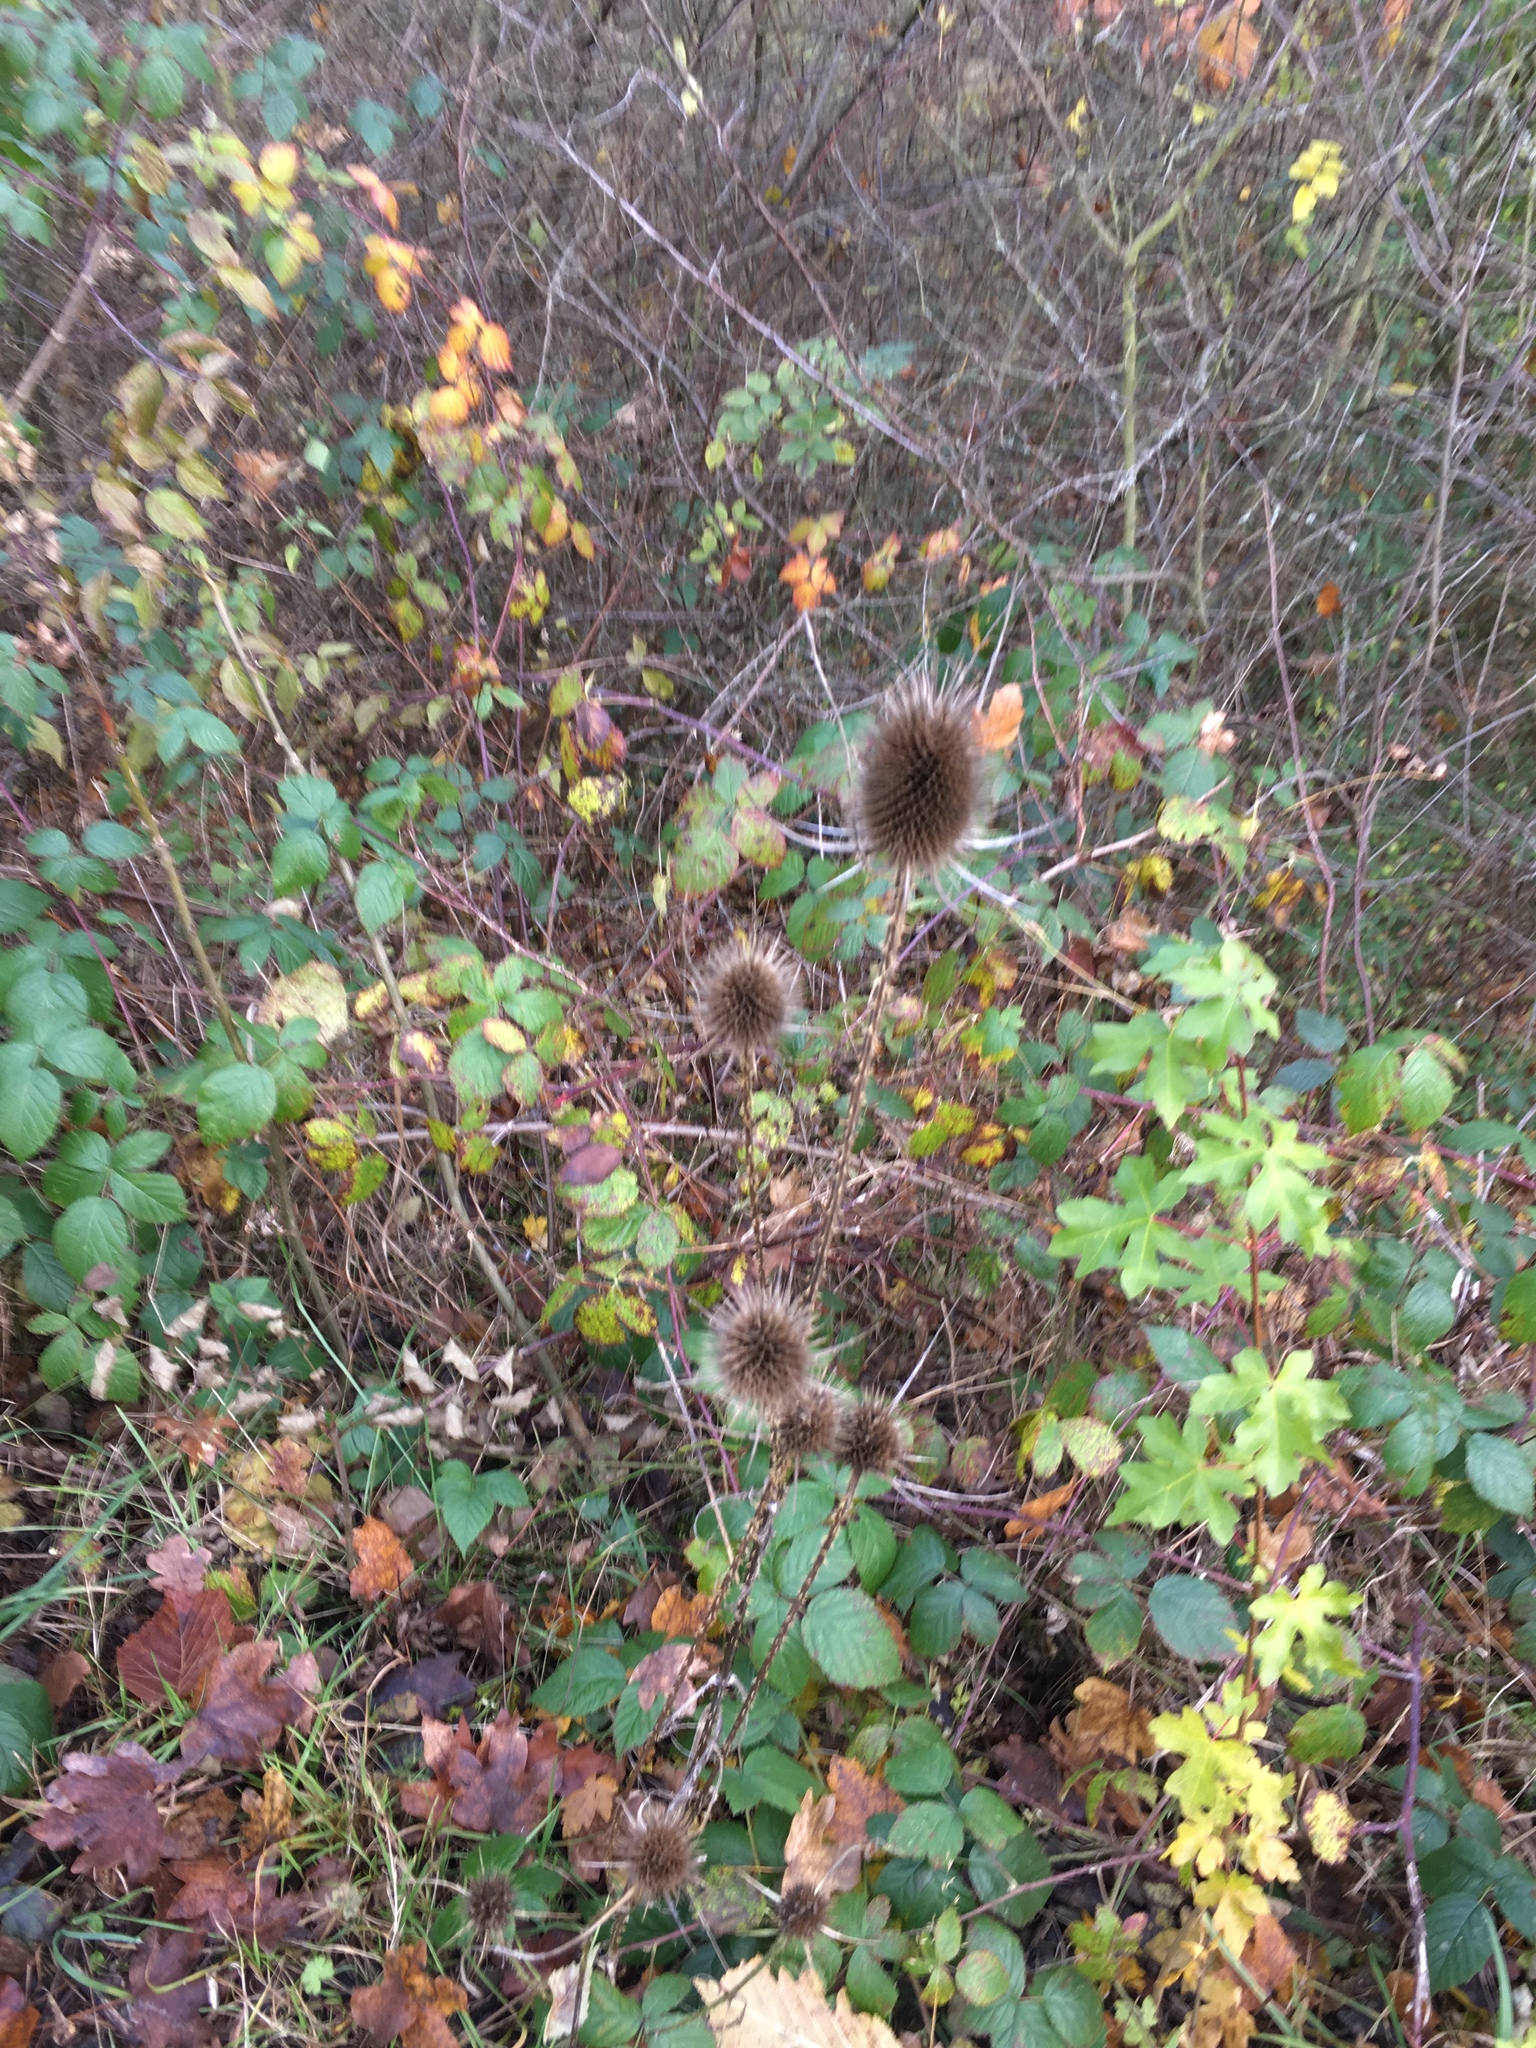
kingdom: Plantae
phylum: Tracheophyta
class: Magnoliopsida
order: Dipsacales
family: Caprifoliaceae
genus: Dipsacus
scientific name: Dipsacus fullonum
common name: Teasel
